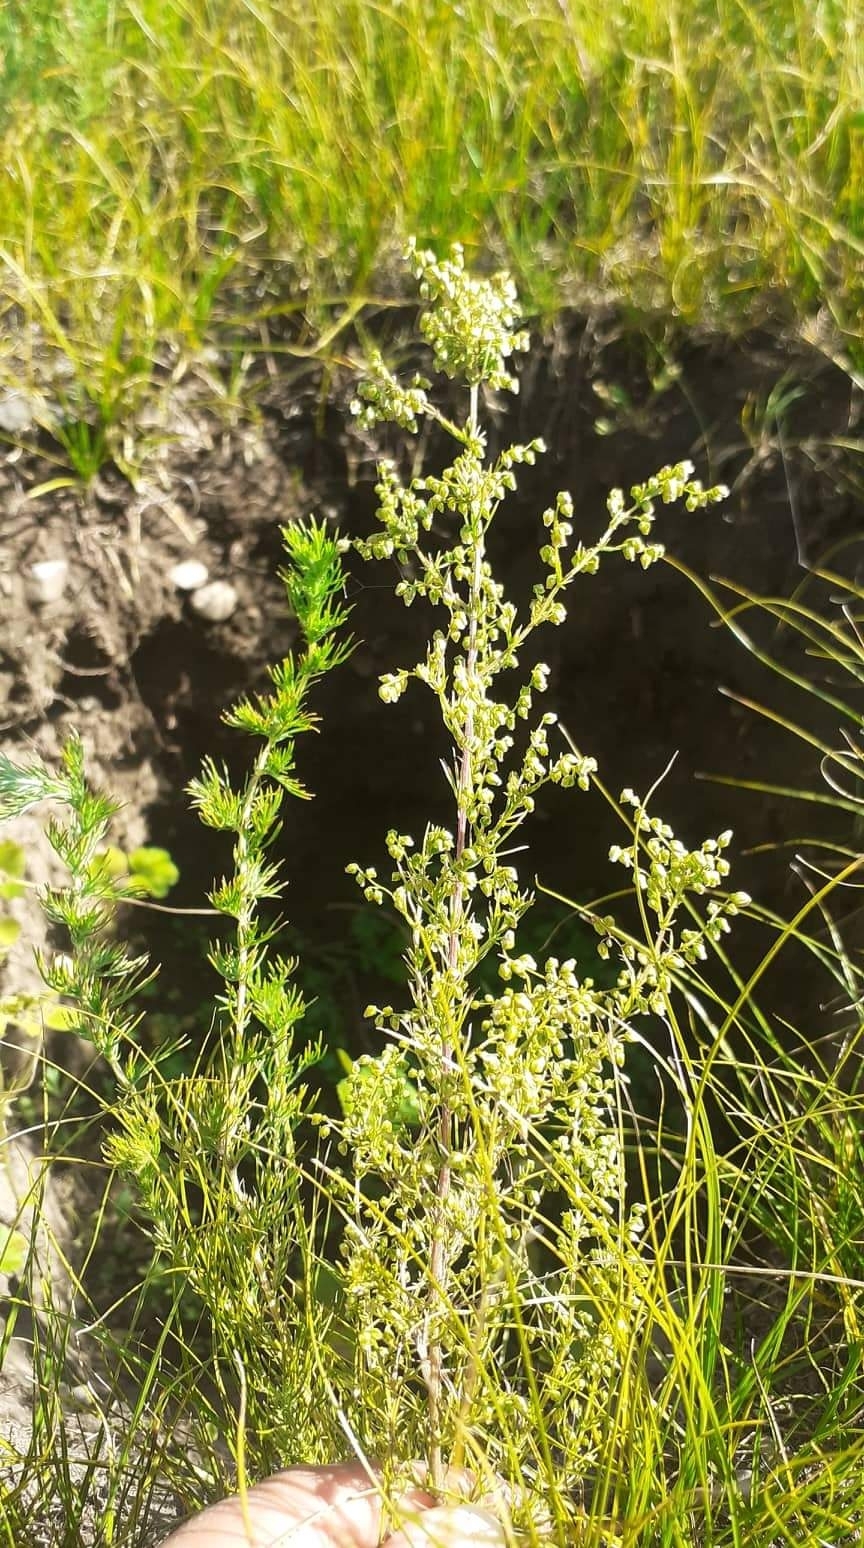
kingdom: Plantae
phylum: Tracheophyta
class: Magnoliopsida
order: Asterales
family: Asteraceae
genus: Artemisia
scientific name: Artemisia scoparia
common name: Redstem wormwood
